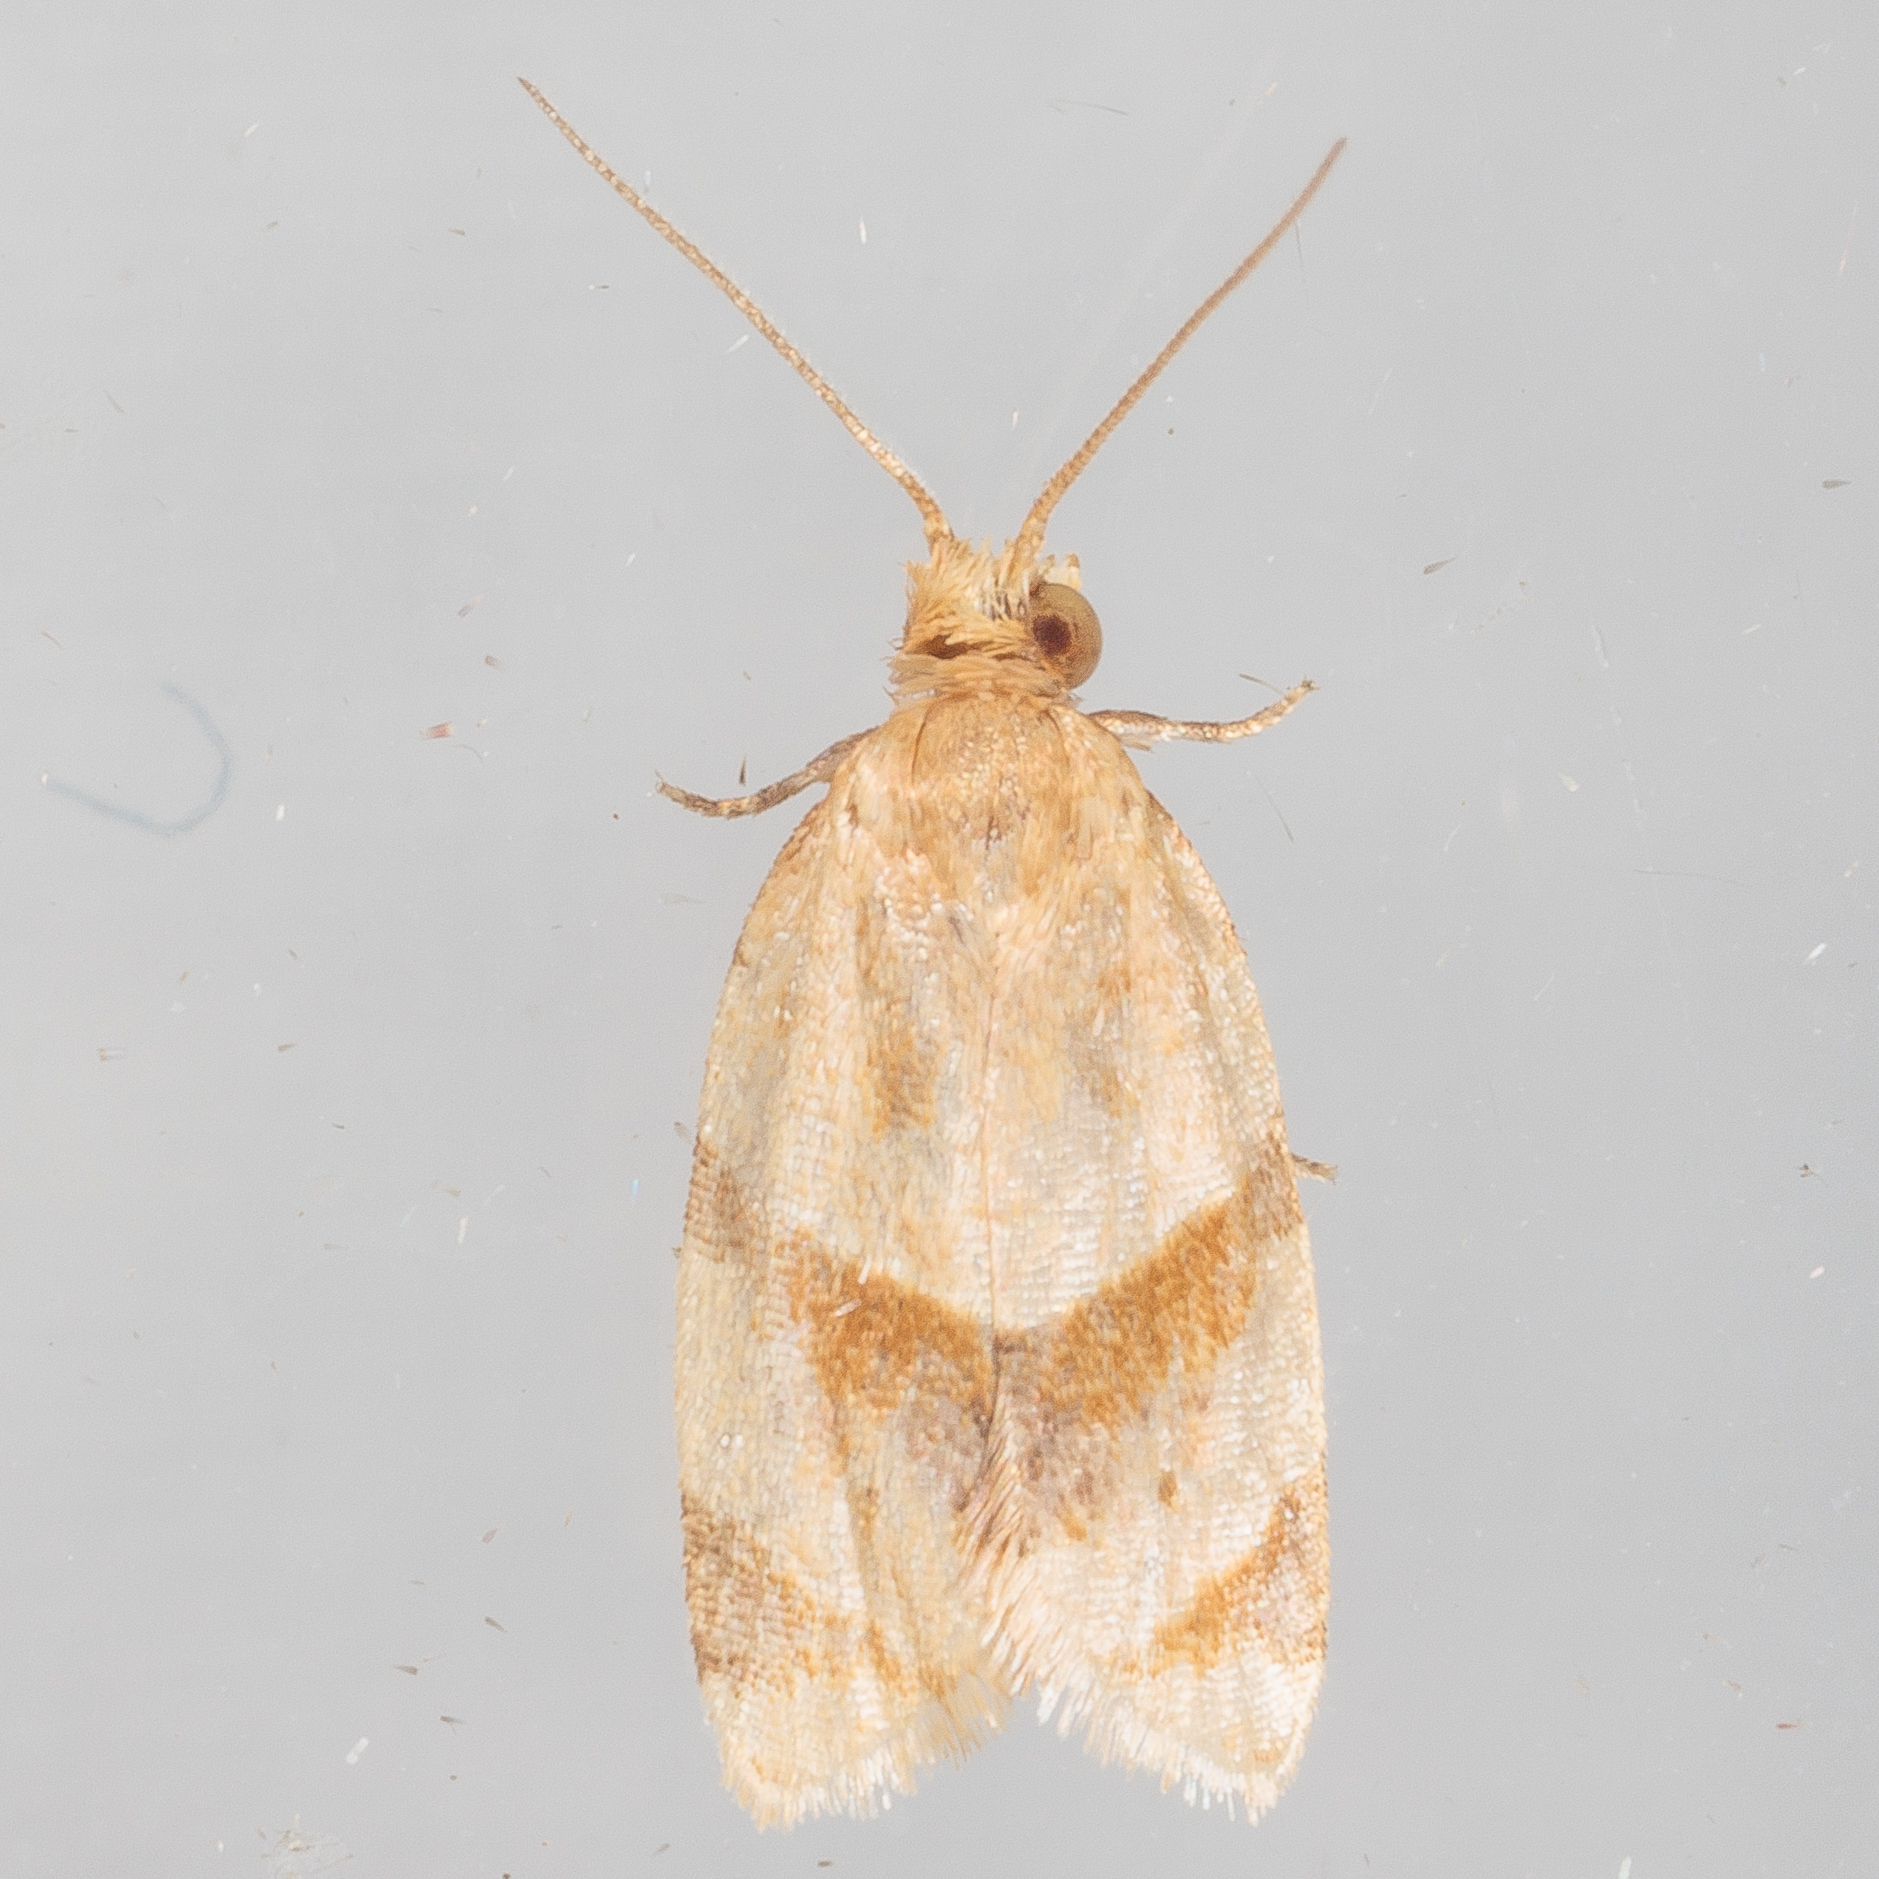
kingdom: Animalia
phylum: Arthropoda
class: Insecta
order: Lepidoptera
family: Tortricidae
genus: Clepsis
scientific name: Clepsis peritana
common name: Garden tortrix
